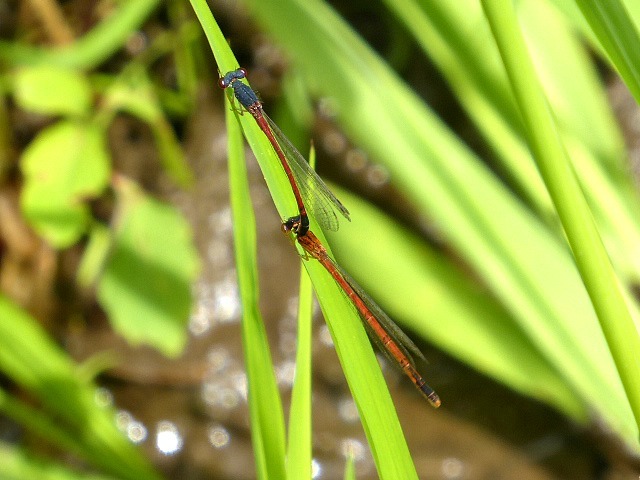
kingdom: Animalia
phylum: Arthropoda
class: Insecta
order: Odonata
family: Coenagrionidae
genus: Amphiagrion
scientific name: Amphiagrion saucium
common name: Eastern red damsel
